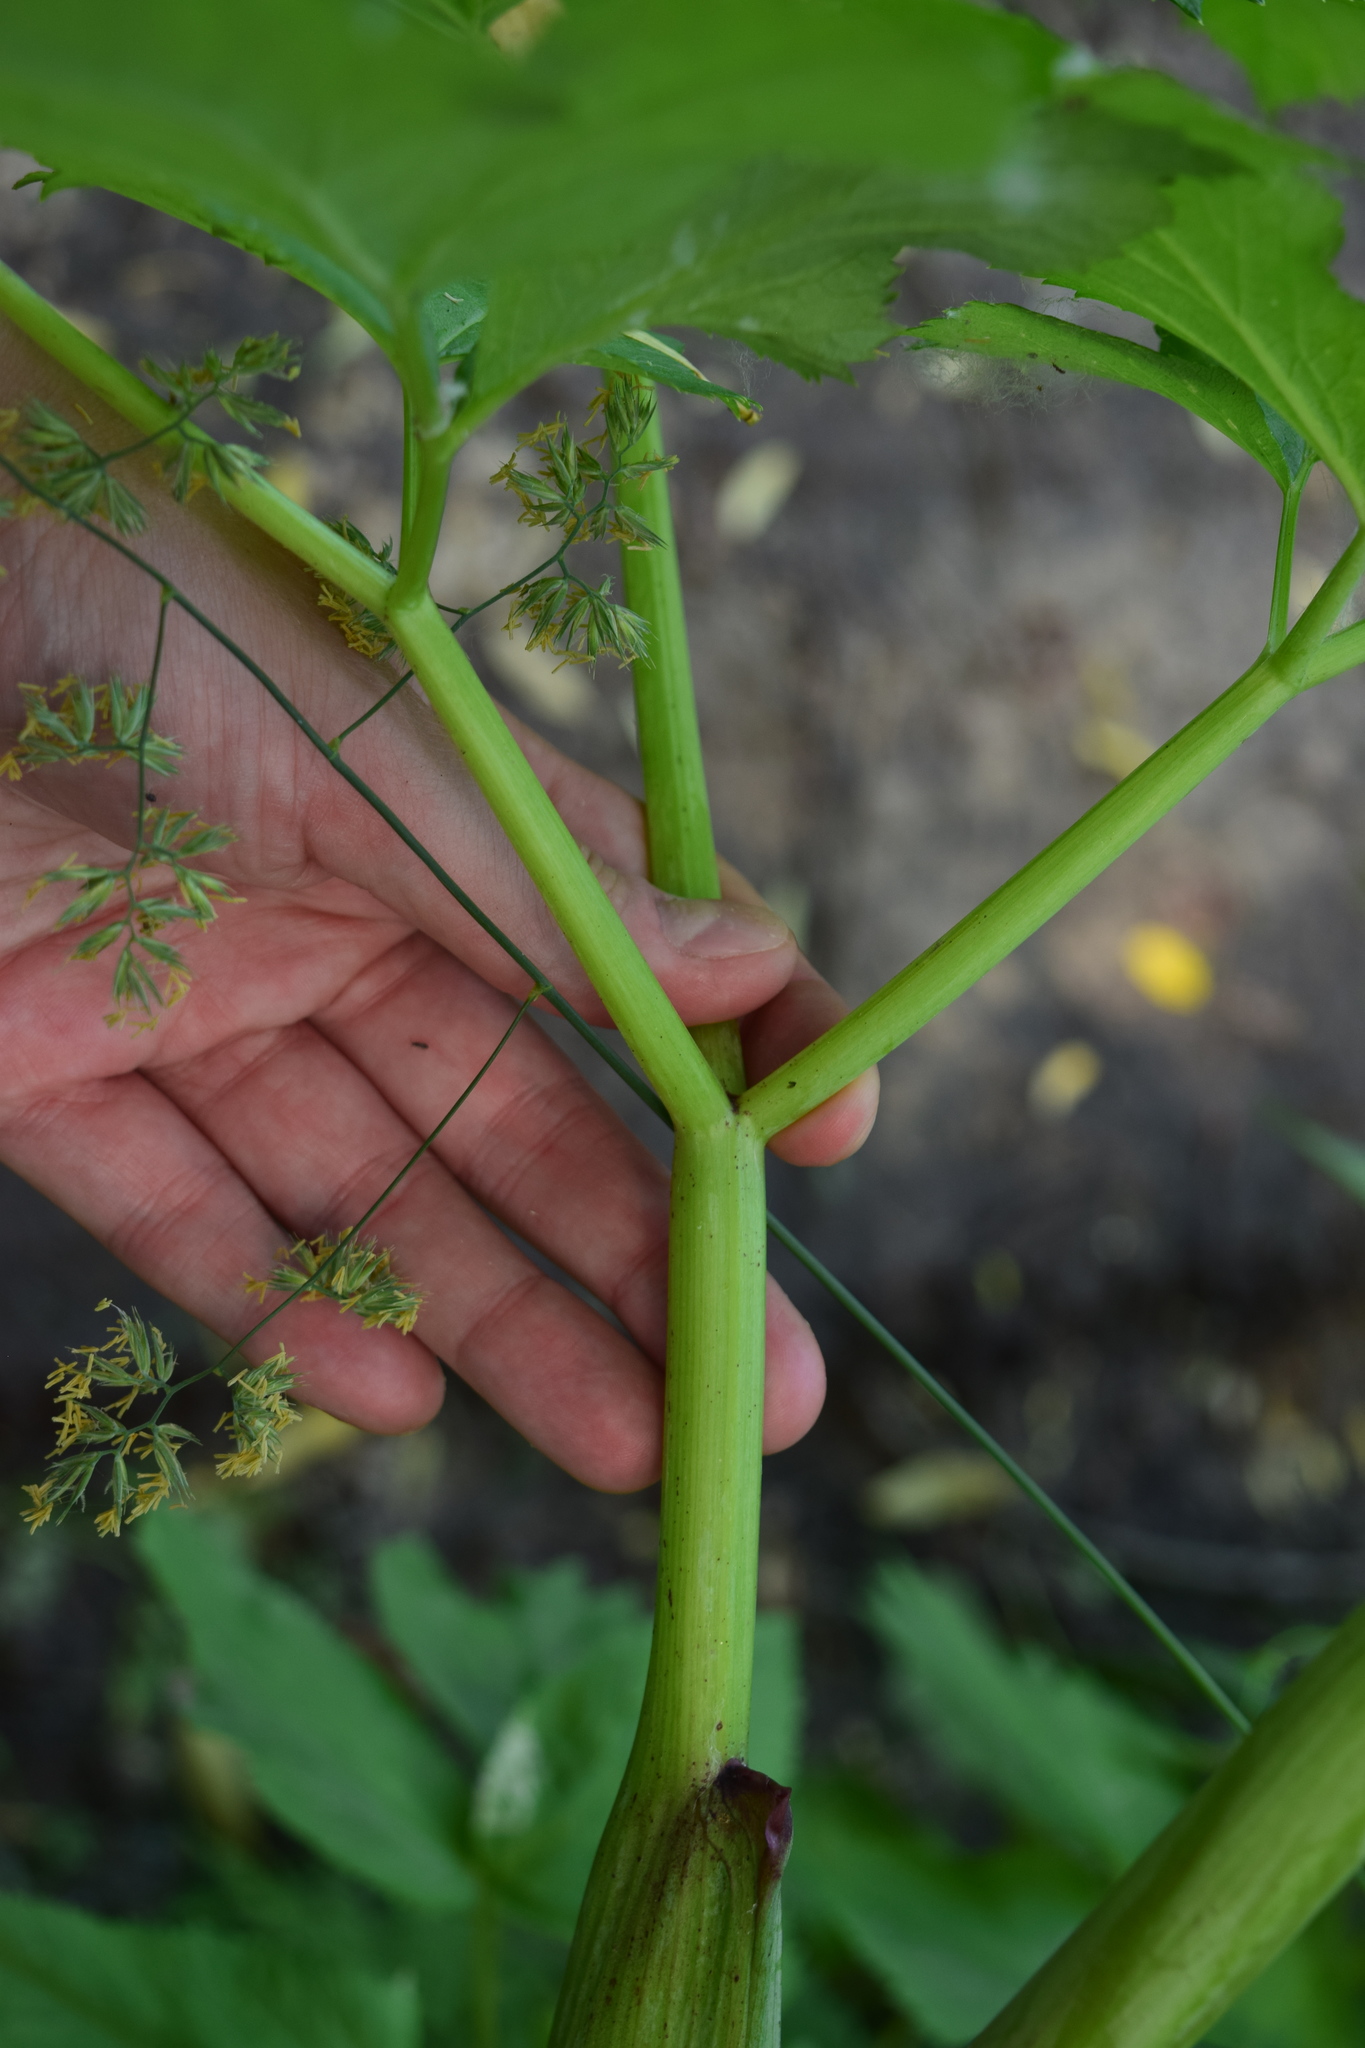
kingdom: Plantae
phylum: Tracheophyta
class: Magnoliopsida
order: Apiales
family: Apiaceae
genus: Angelica
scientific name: Angelica archangelica
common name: Garden angelica
